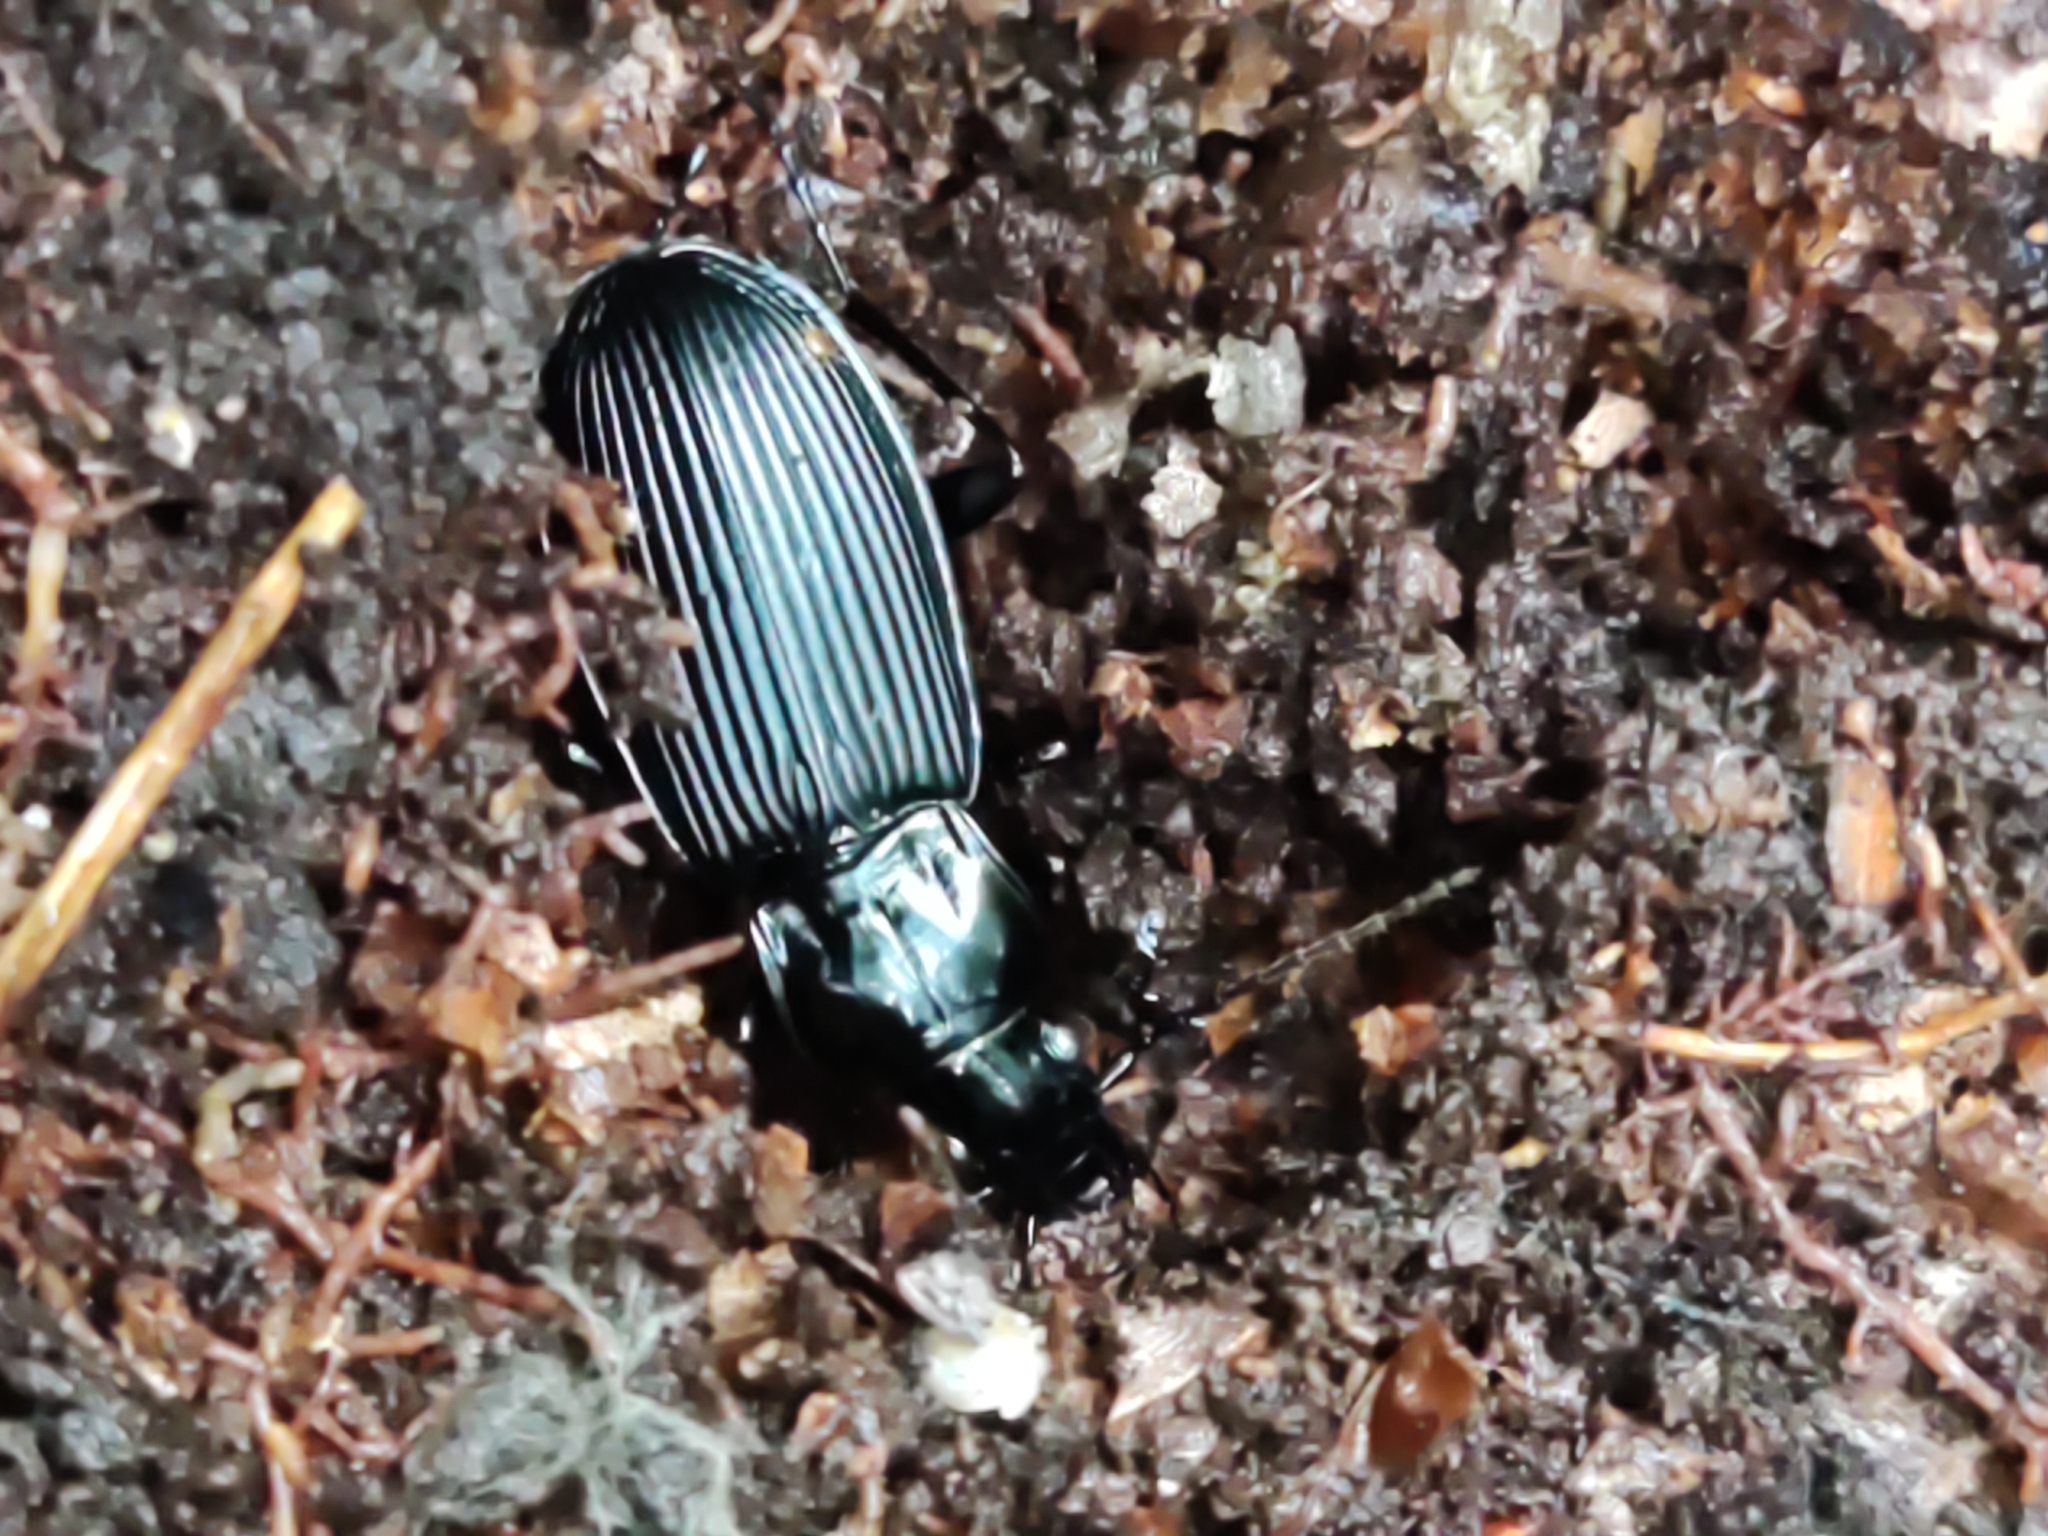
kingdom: Animalia
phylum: Arthropoda
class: Insecta
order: Coleoptera
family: Carabidae
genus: Pterostichus
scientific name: Pterostichus niger
